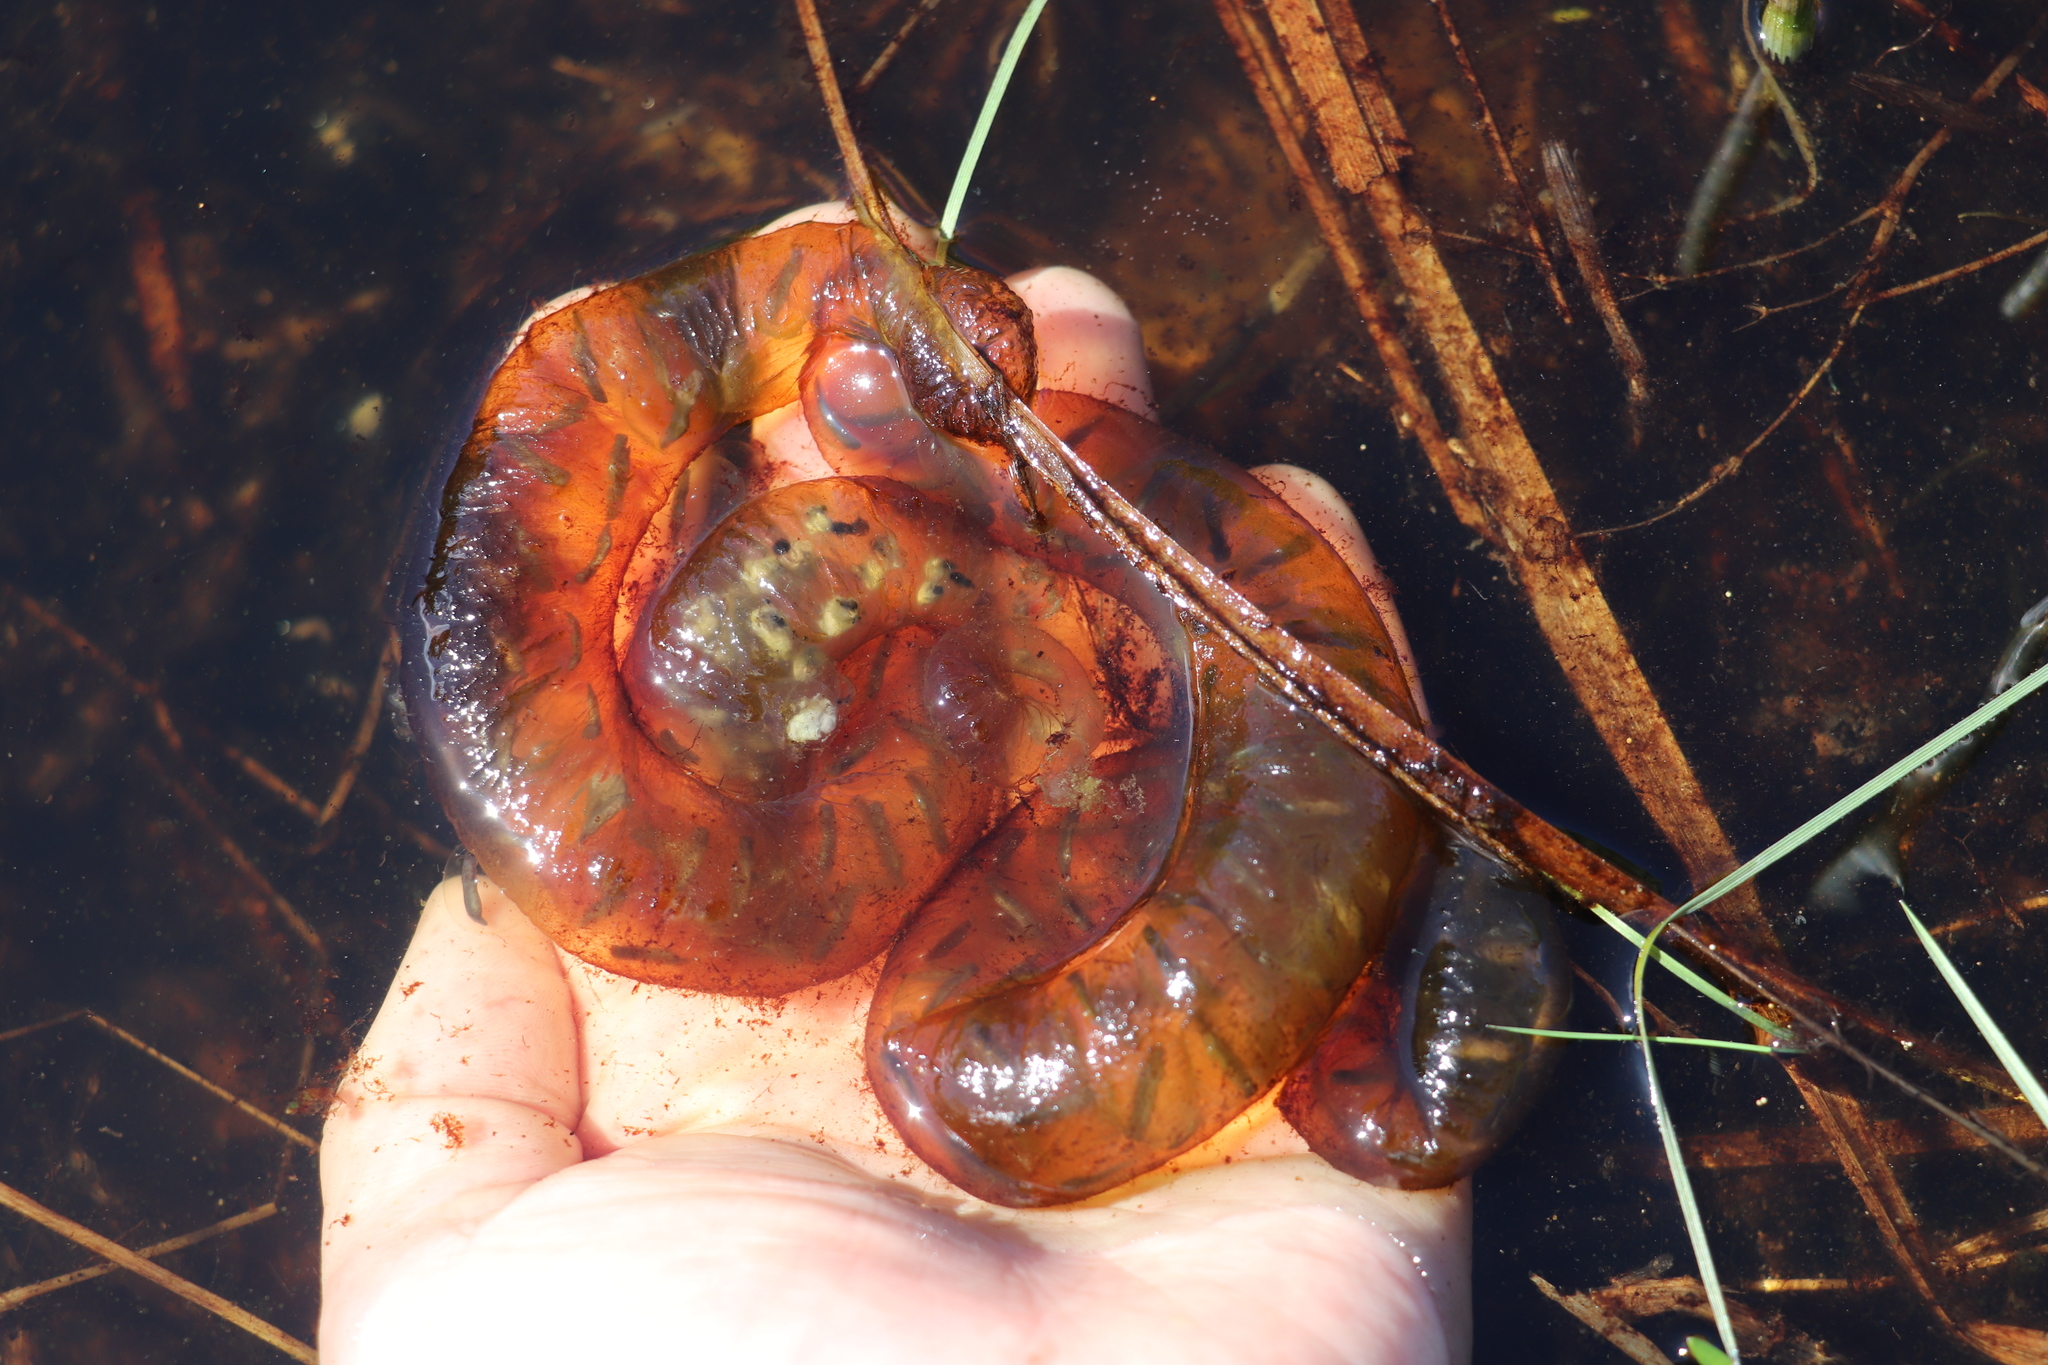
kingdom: Animalia
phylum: Chordata
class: Amphibia
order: Caudata
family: Hynobiidae
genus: Salamandrella
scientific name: Salamandrella keyserlingii
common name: Dybowski's salamander
